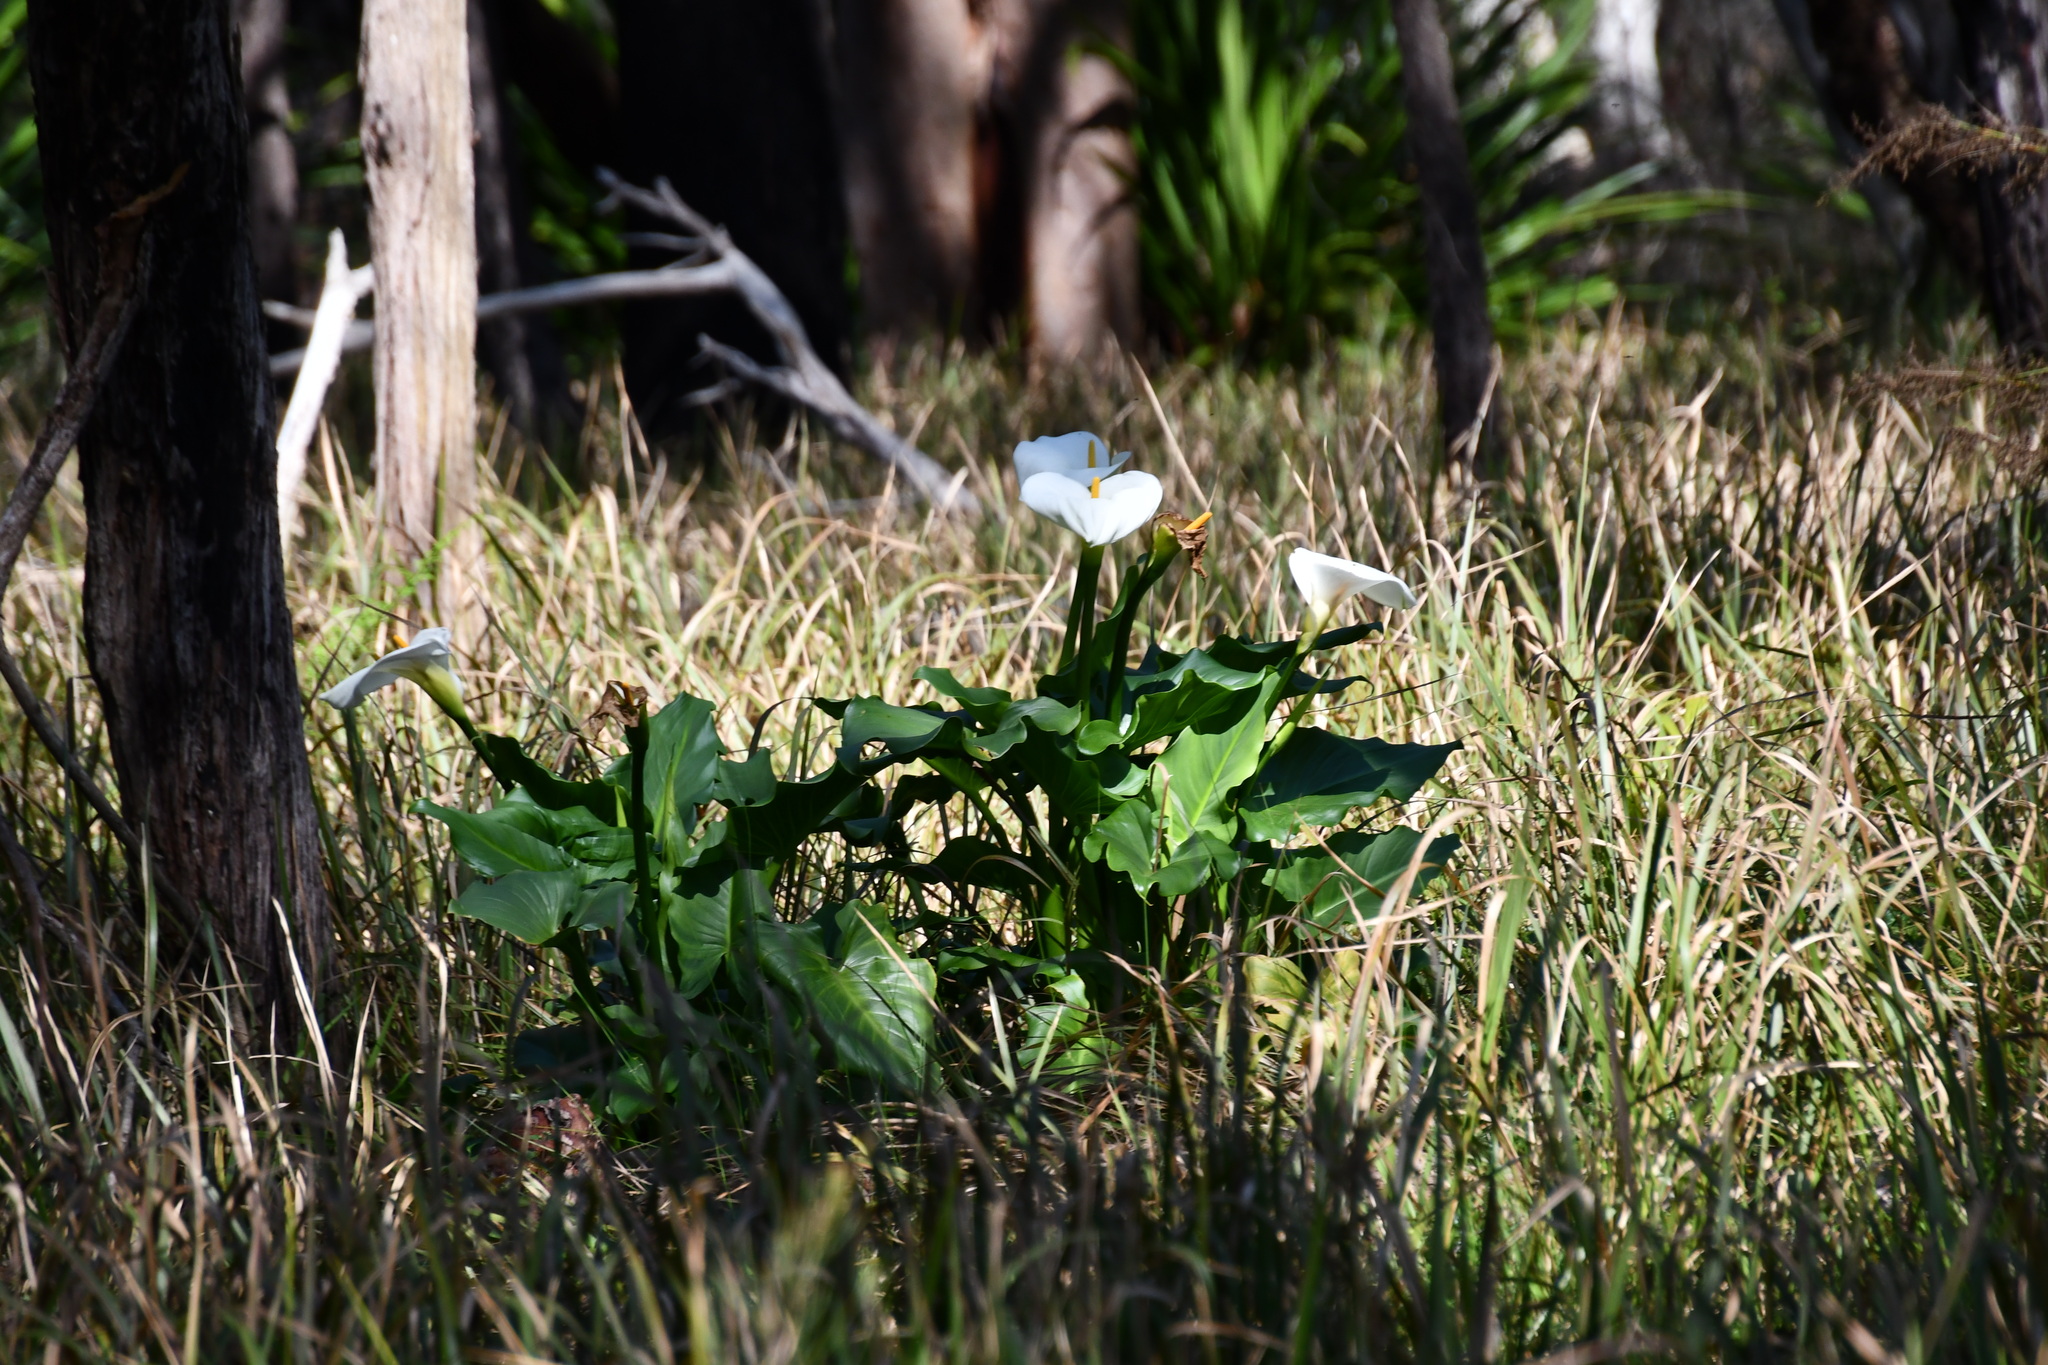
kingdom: Plantae
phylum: Tracheophyta
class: Liliopsida
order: Alismatales
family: Araceae
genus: Zantedeschia
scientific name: Zantedeschia aethiopica
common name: Altar-lily
